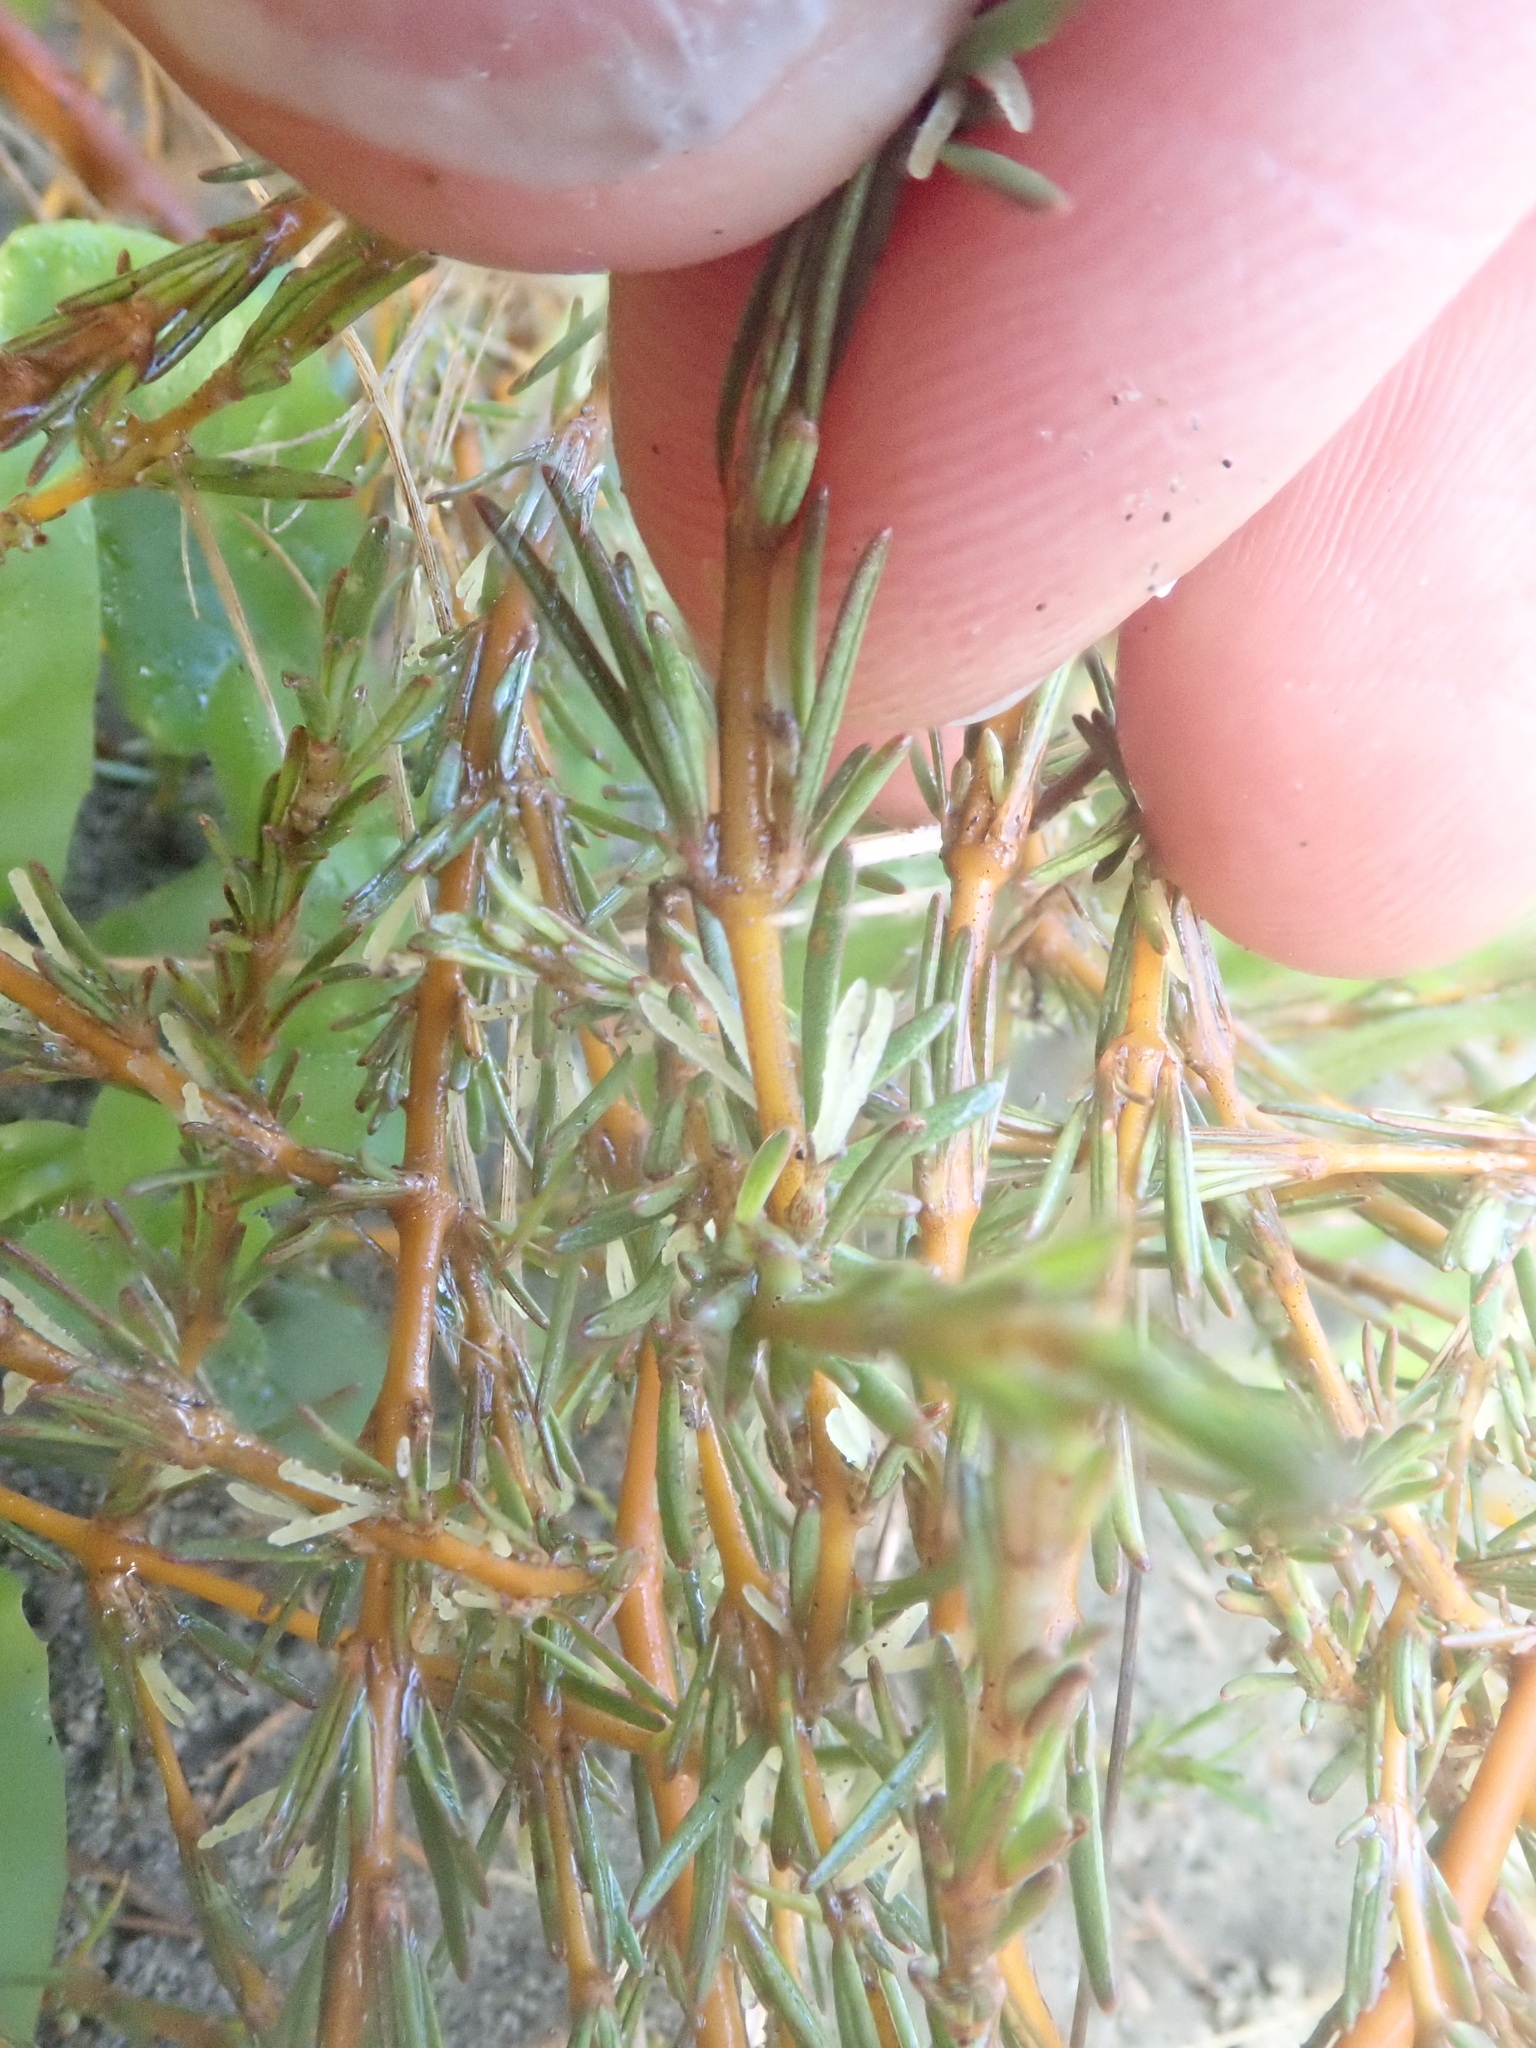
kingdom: Plantae
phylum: Tracheophyta
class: Magnoliopsida
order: Gentianales
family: Rubiaceae
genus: Coprosma
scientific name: Coprosma acerosa
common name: Sand coprosma
